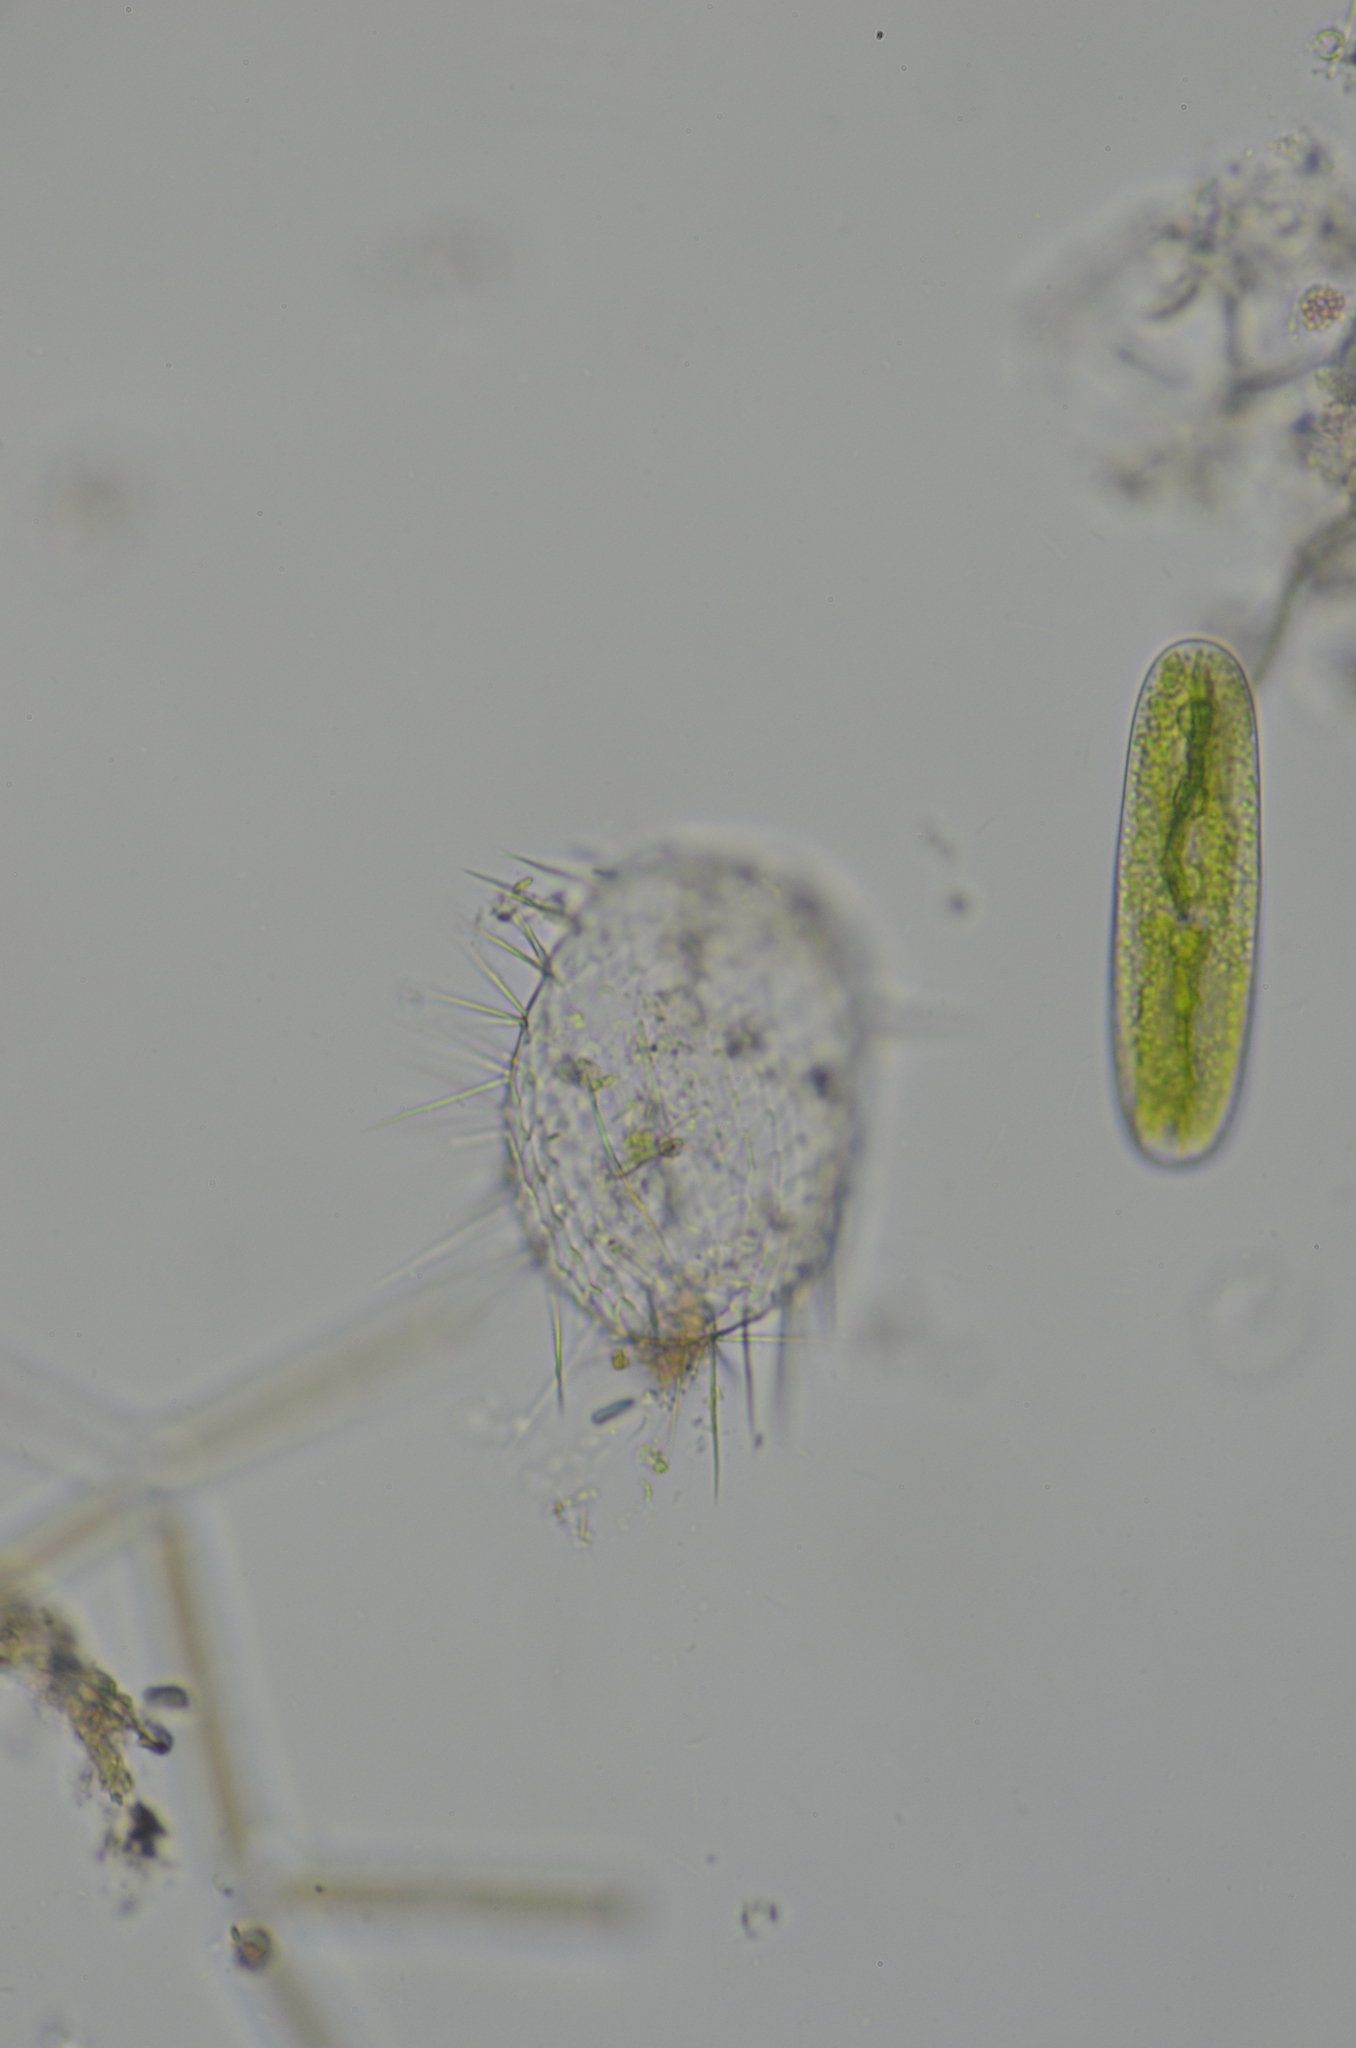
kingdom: Protozoa
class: Filosia
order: Aconchulinida
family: Euglyphidae
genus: Euglypha
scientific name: Euglypha strigosa
